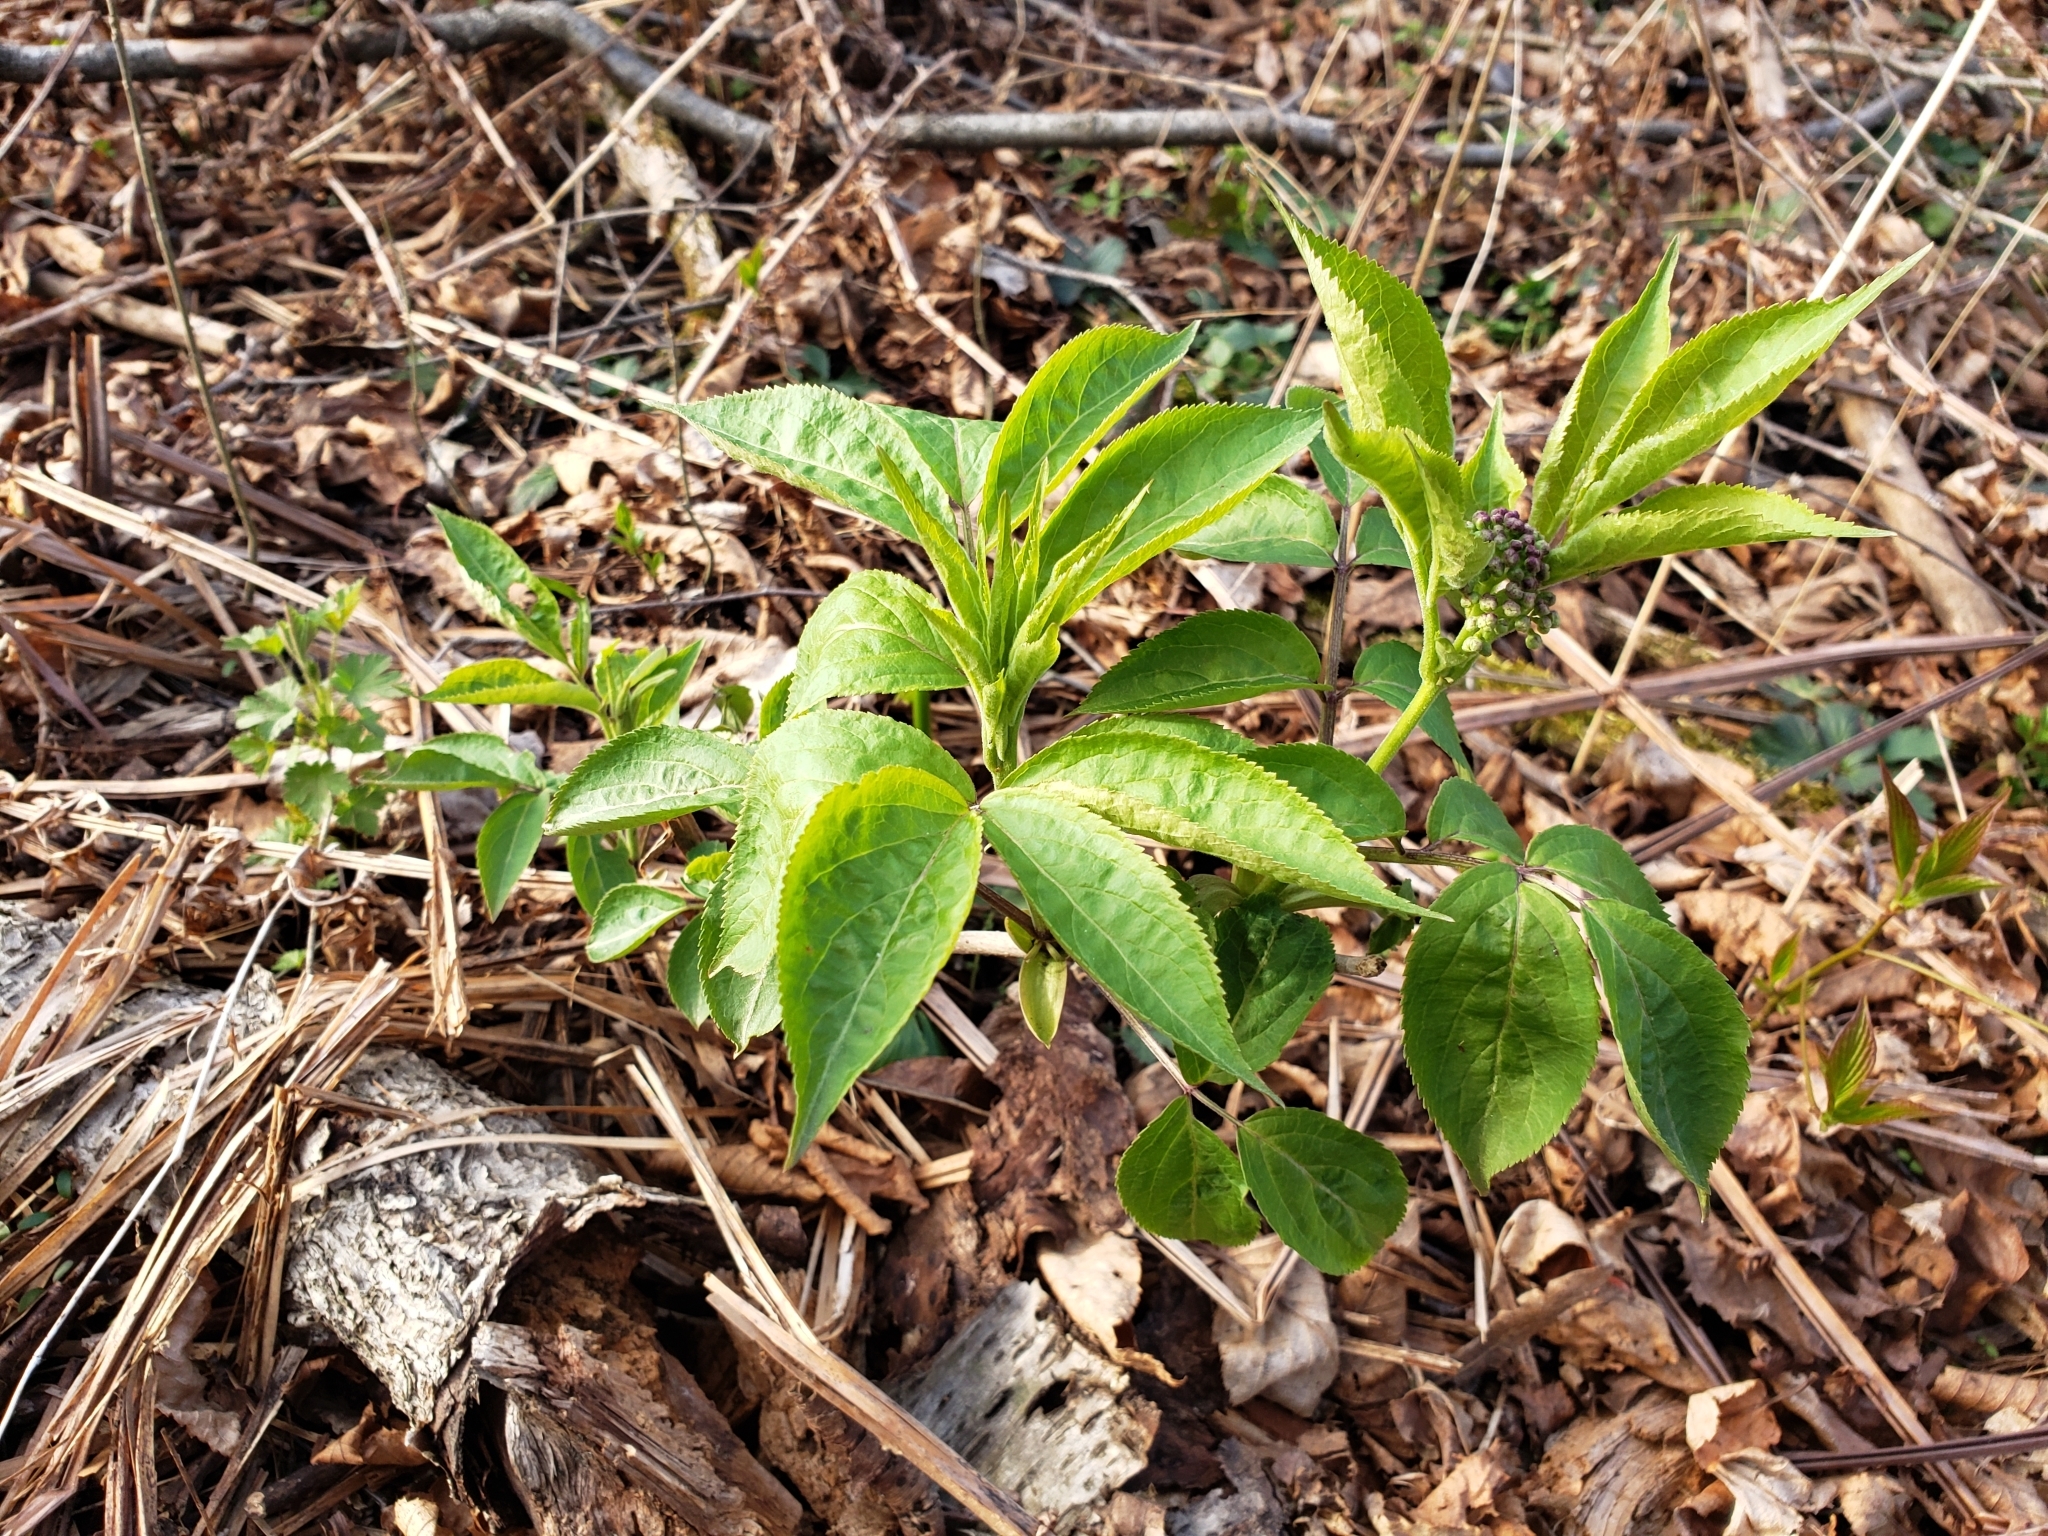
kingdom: Plantae
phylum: Tracheophyta
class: Magnoliopsida
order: Dipsacales
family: Viburnaceae
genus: Sambucus
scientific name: Sambucus racemosa
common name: Red-berried elder
